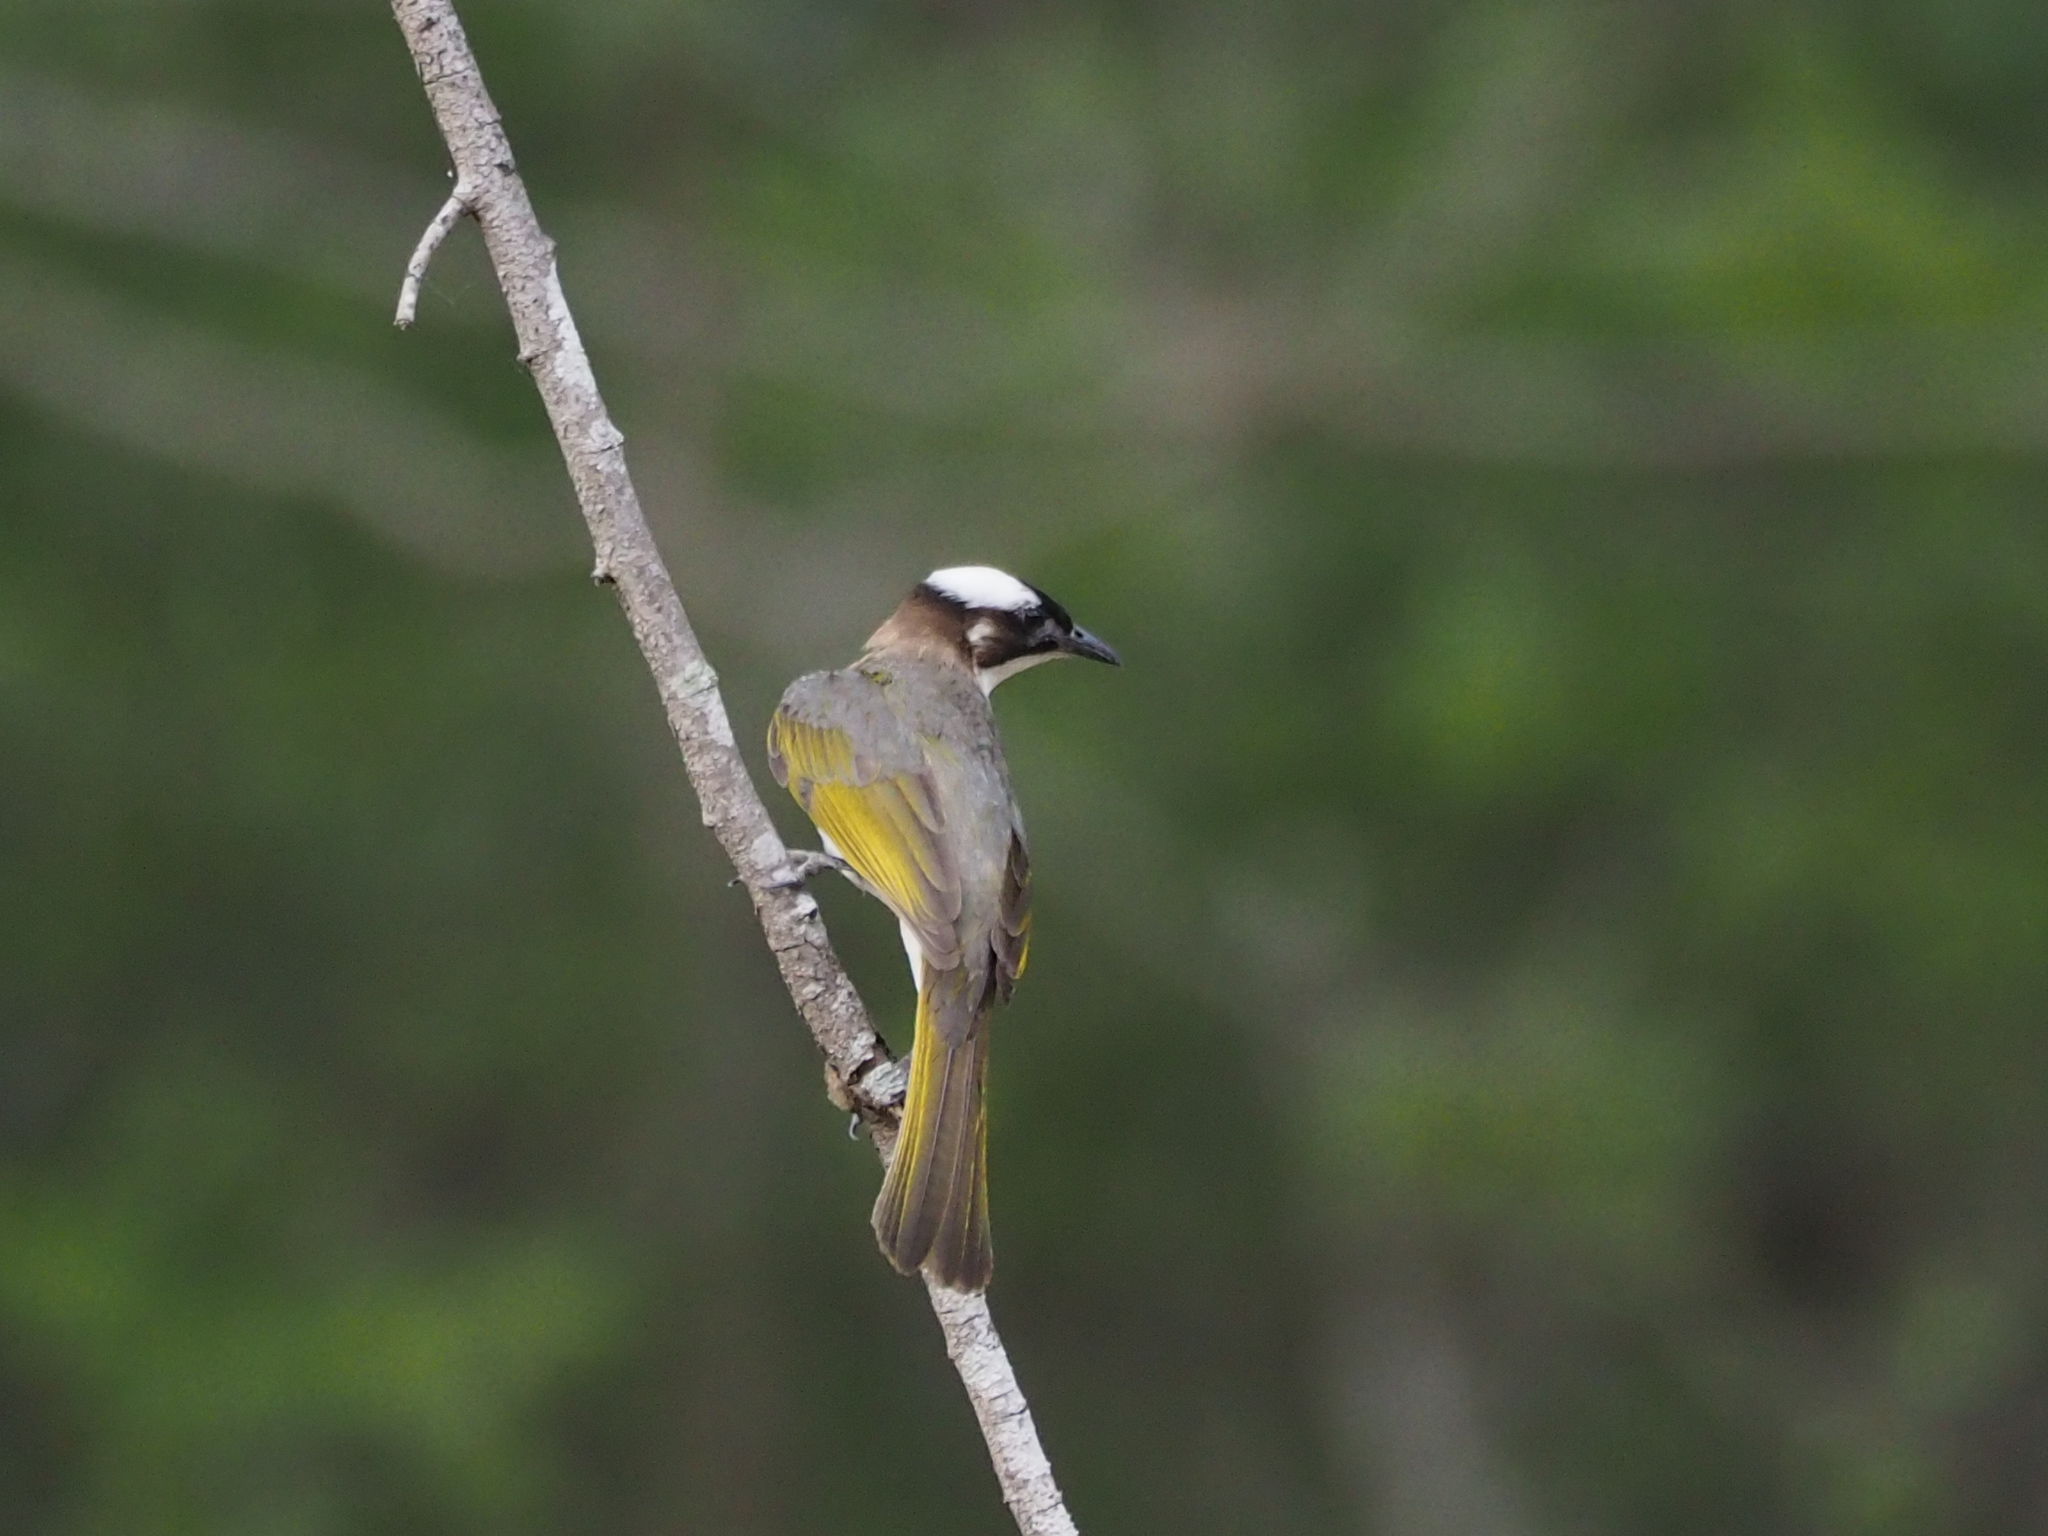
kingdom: Animalia
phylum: Chordata
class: Aves
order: Passeriformes
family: Pycnonotidae
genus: Pycnonotus
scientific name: Pycnonotus sinensis
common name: Light-vented bulbul
